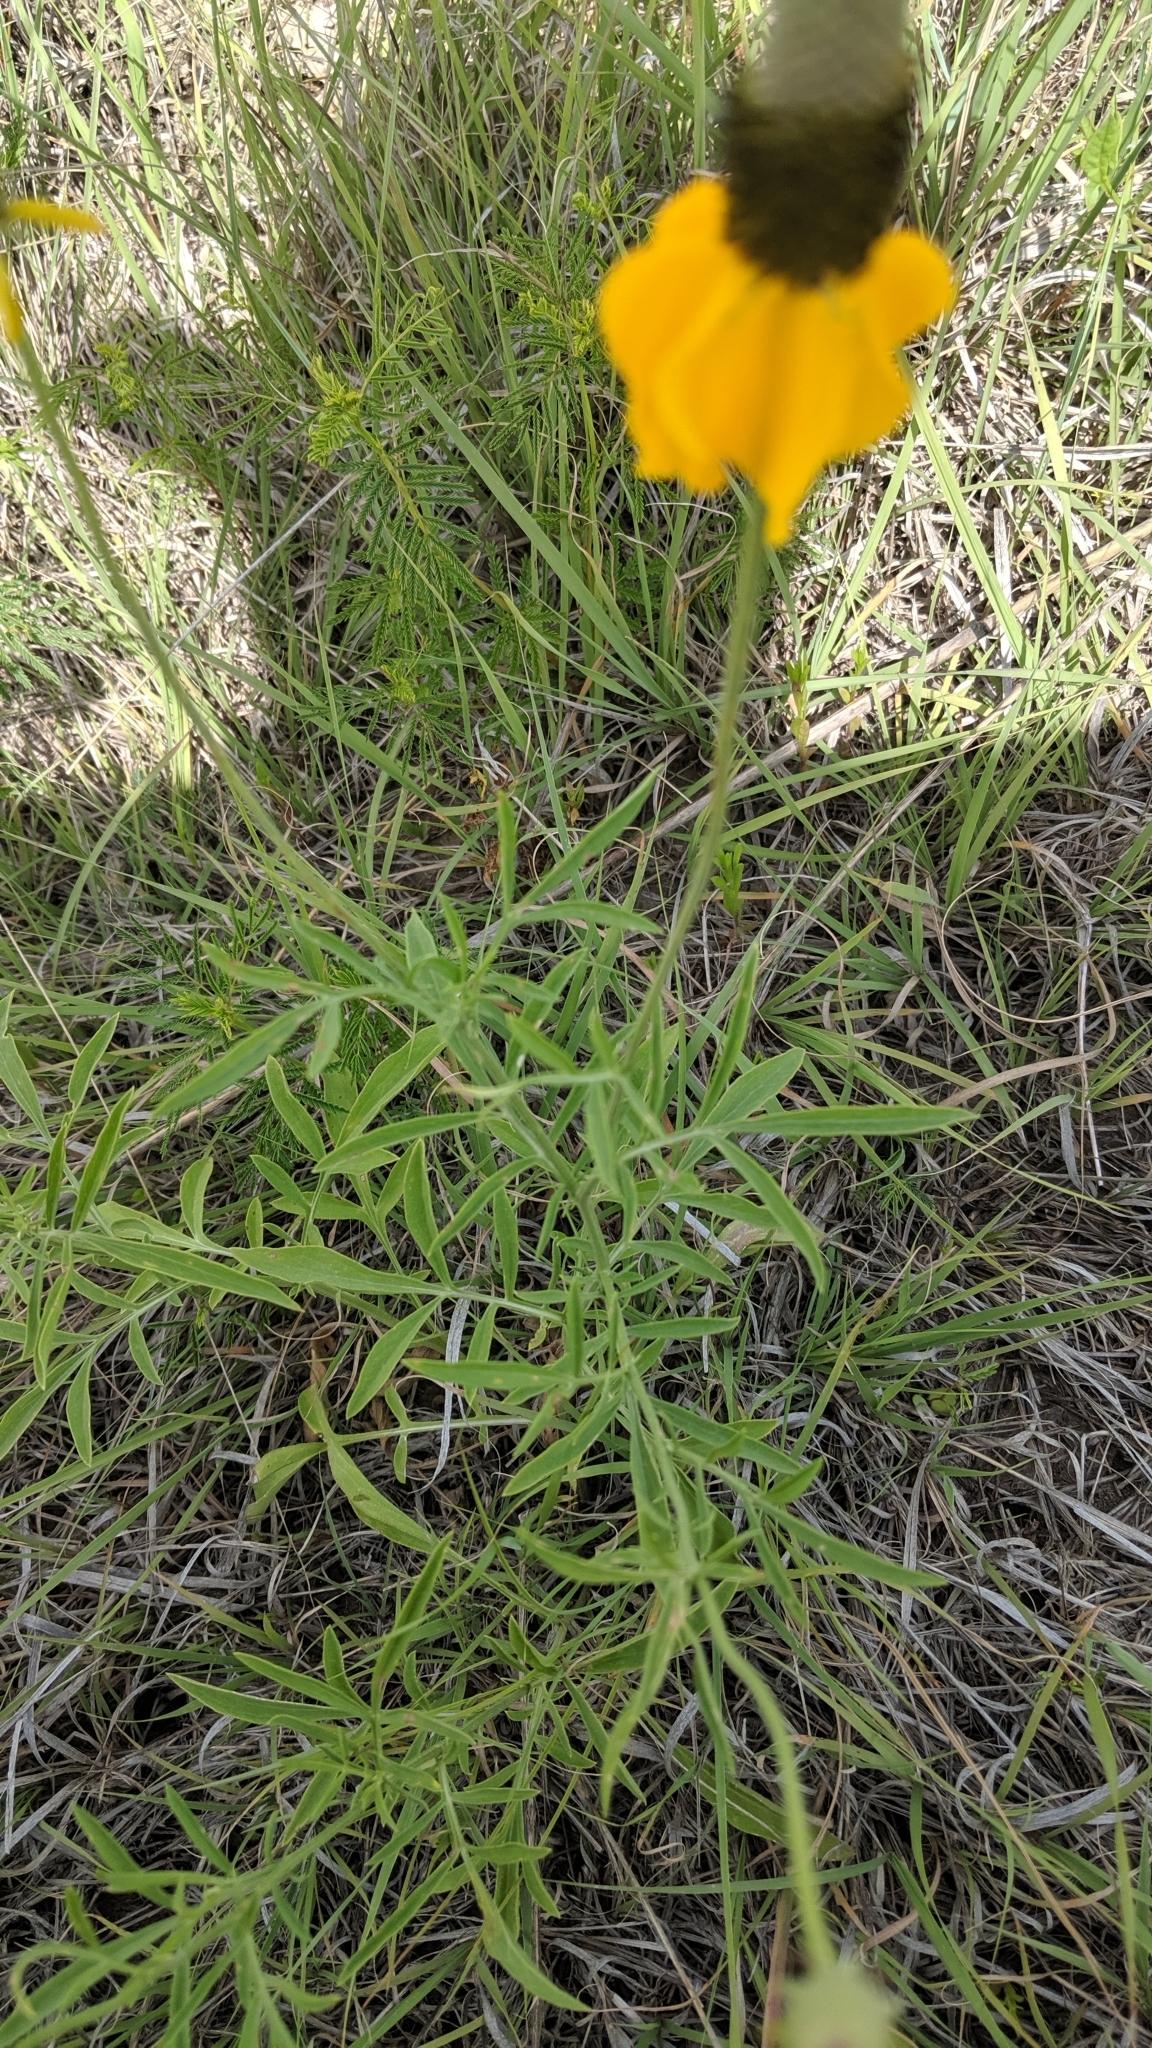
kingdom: Plantae
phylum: Tracheophyta
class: Magnoliopsida
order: Asterales
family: Asteraceae
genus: Ratibida
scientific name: Ratibida columnifera
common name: Prairie coneflower
